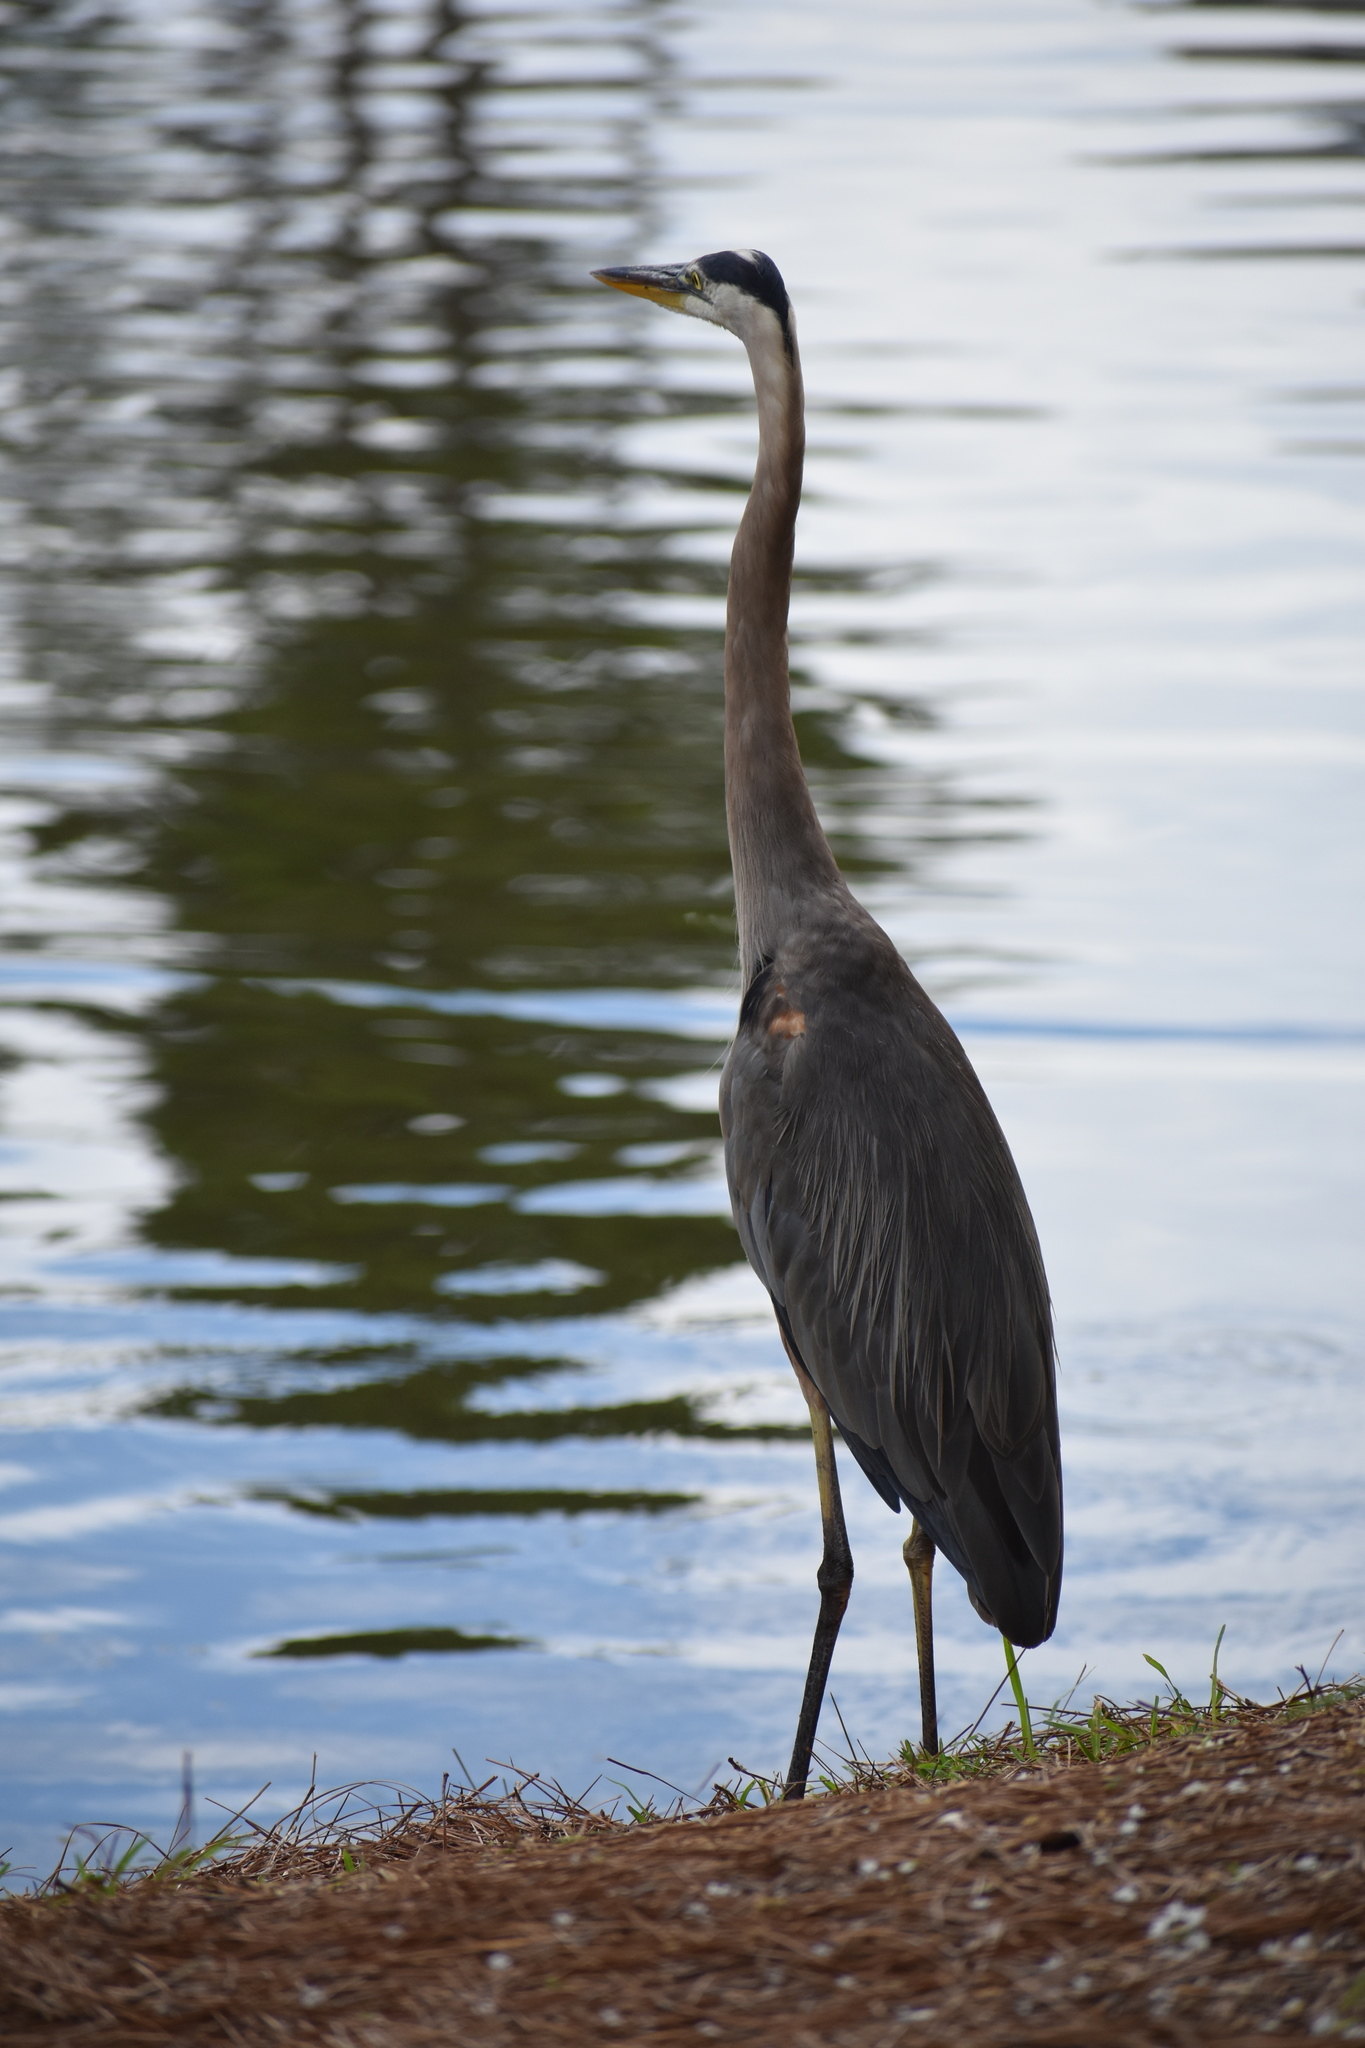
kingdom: Animalia
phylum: Chordata
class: Aves
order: Pelecaniformes
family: Ardeidae
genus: Ardea
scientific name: Ardea herodias
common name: Great blue heron
